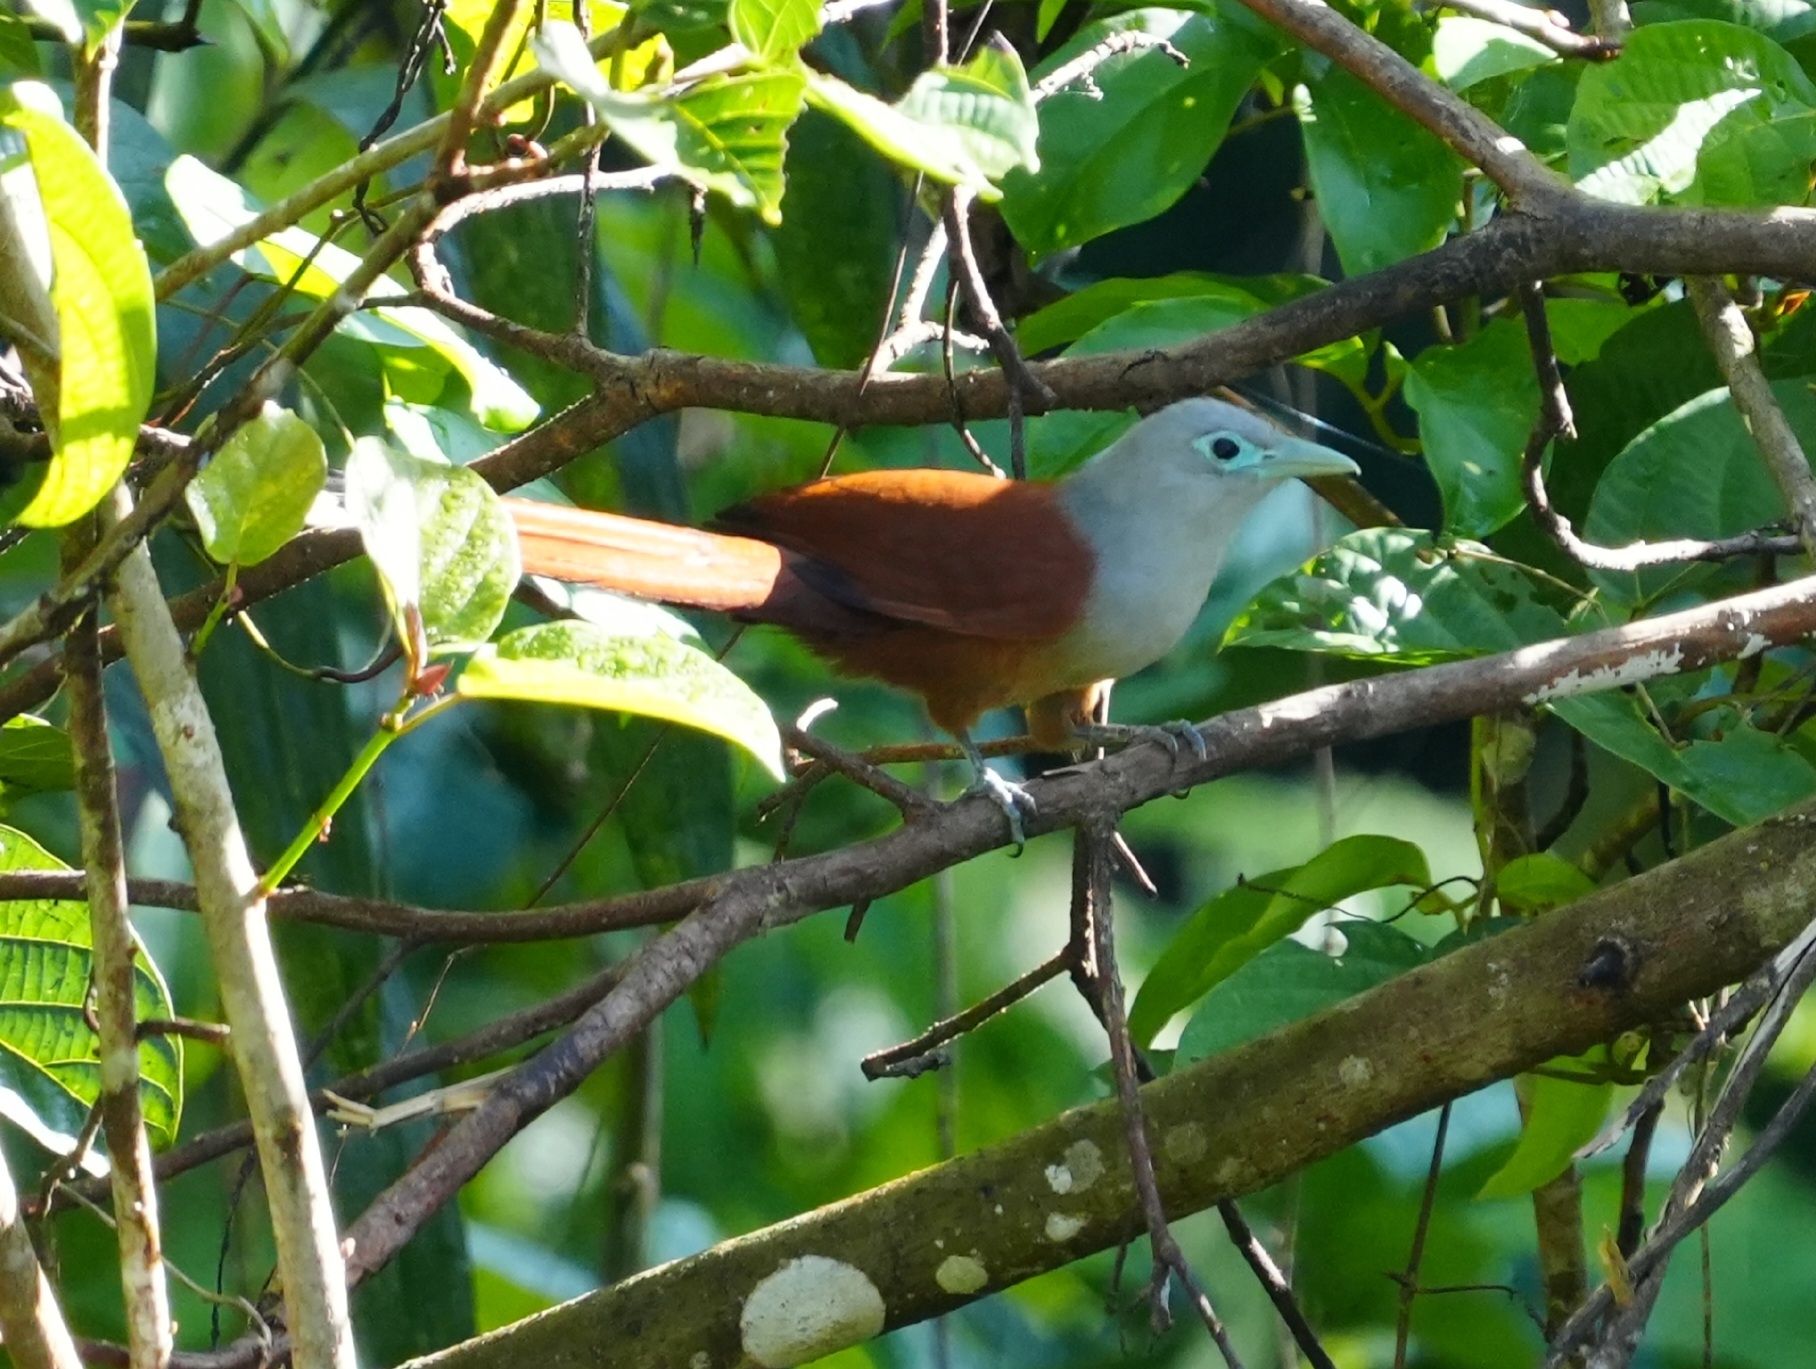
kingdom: Animalia
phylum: Chordata
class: Aves
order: Cuculiformes
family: Cuculidae
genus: Rhinortha
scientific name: Rhinortha chlorophaea
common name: Raffles's malkoha
